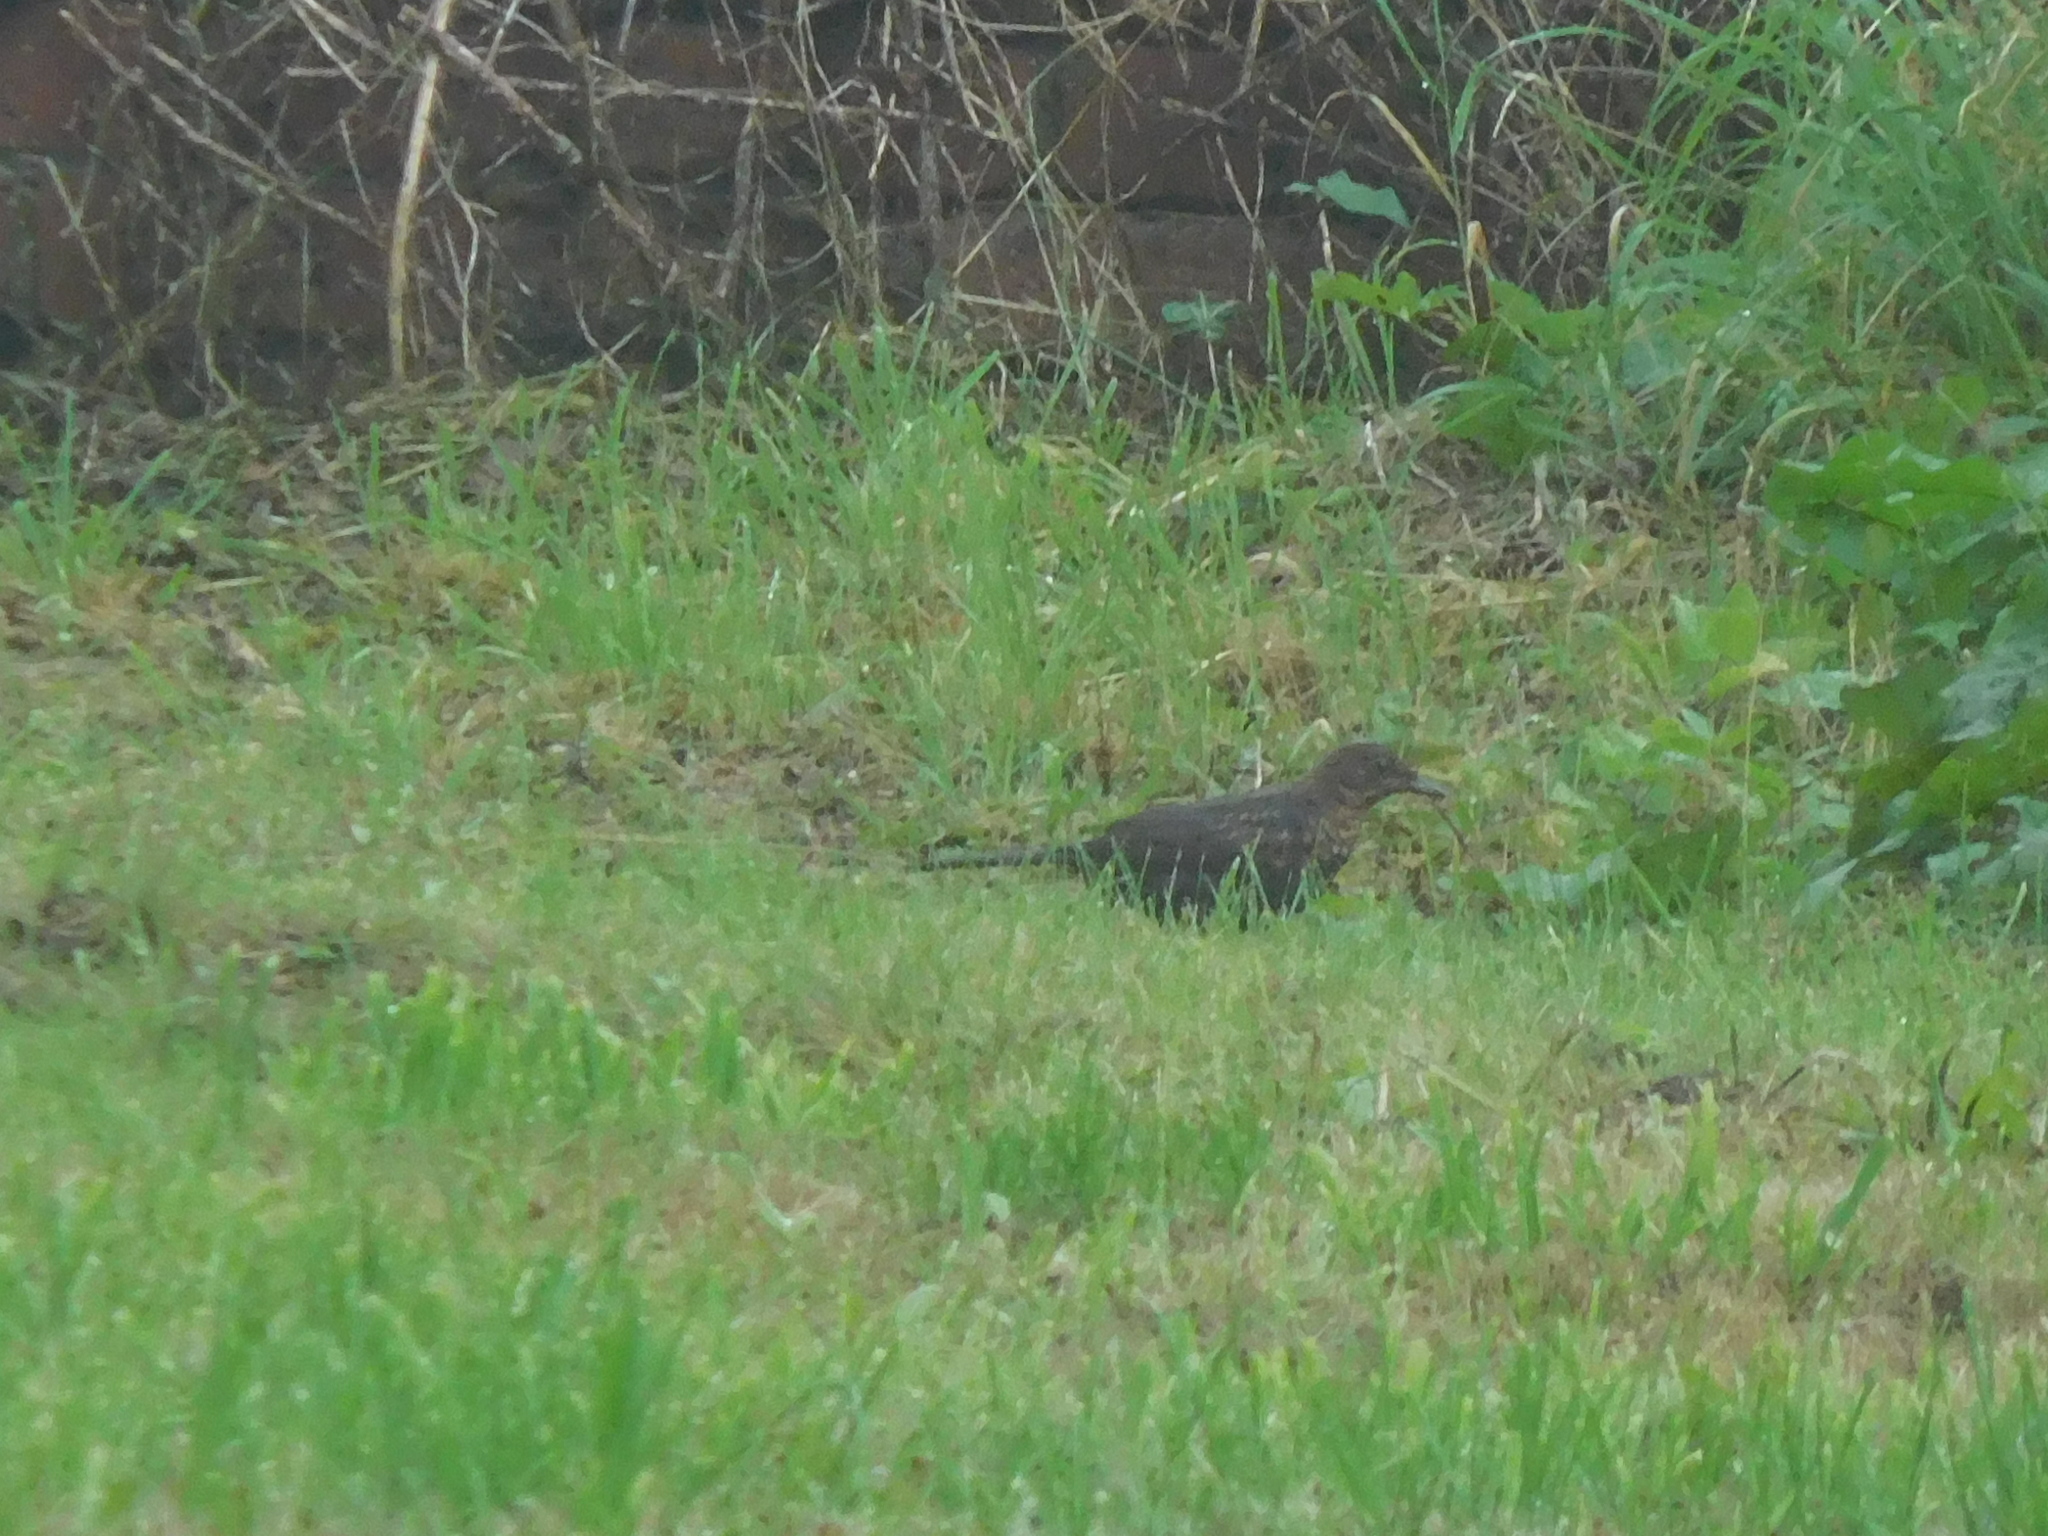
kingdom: Animalia
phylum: Chordata
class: Aves
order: Passeriformes
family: Turdidae
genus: Turdus
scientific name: Turdus merula
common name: Common blackbird
